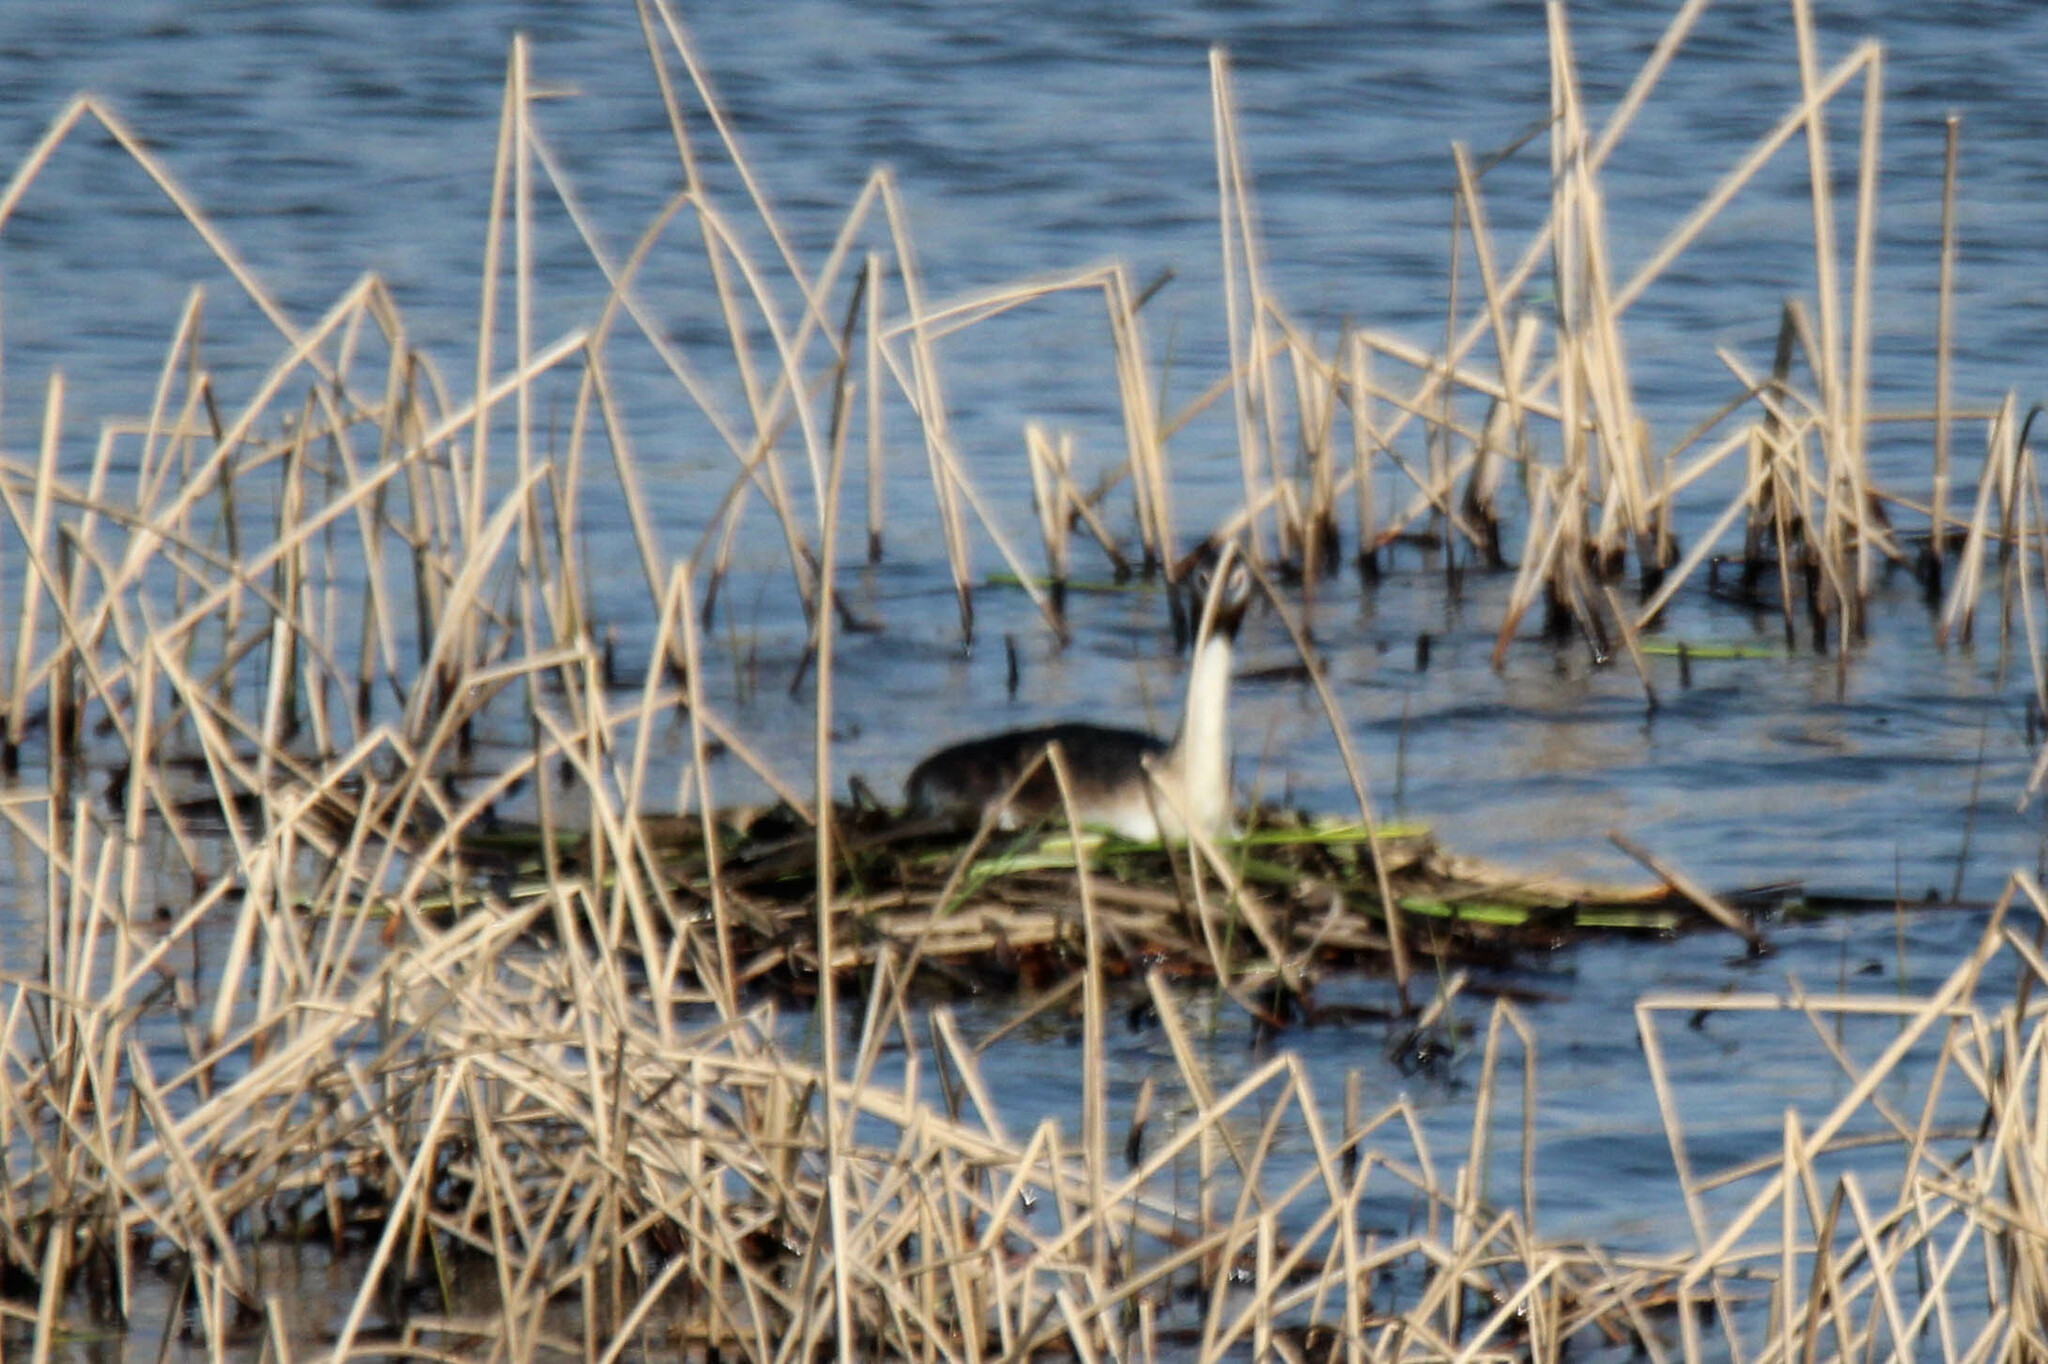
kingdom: Animalia
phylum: Chordata
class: Aves
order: Podicipediformes
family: Podicipedidae
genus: Podiceps
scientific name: Podiceps cristatus
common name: Great crested grebe
